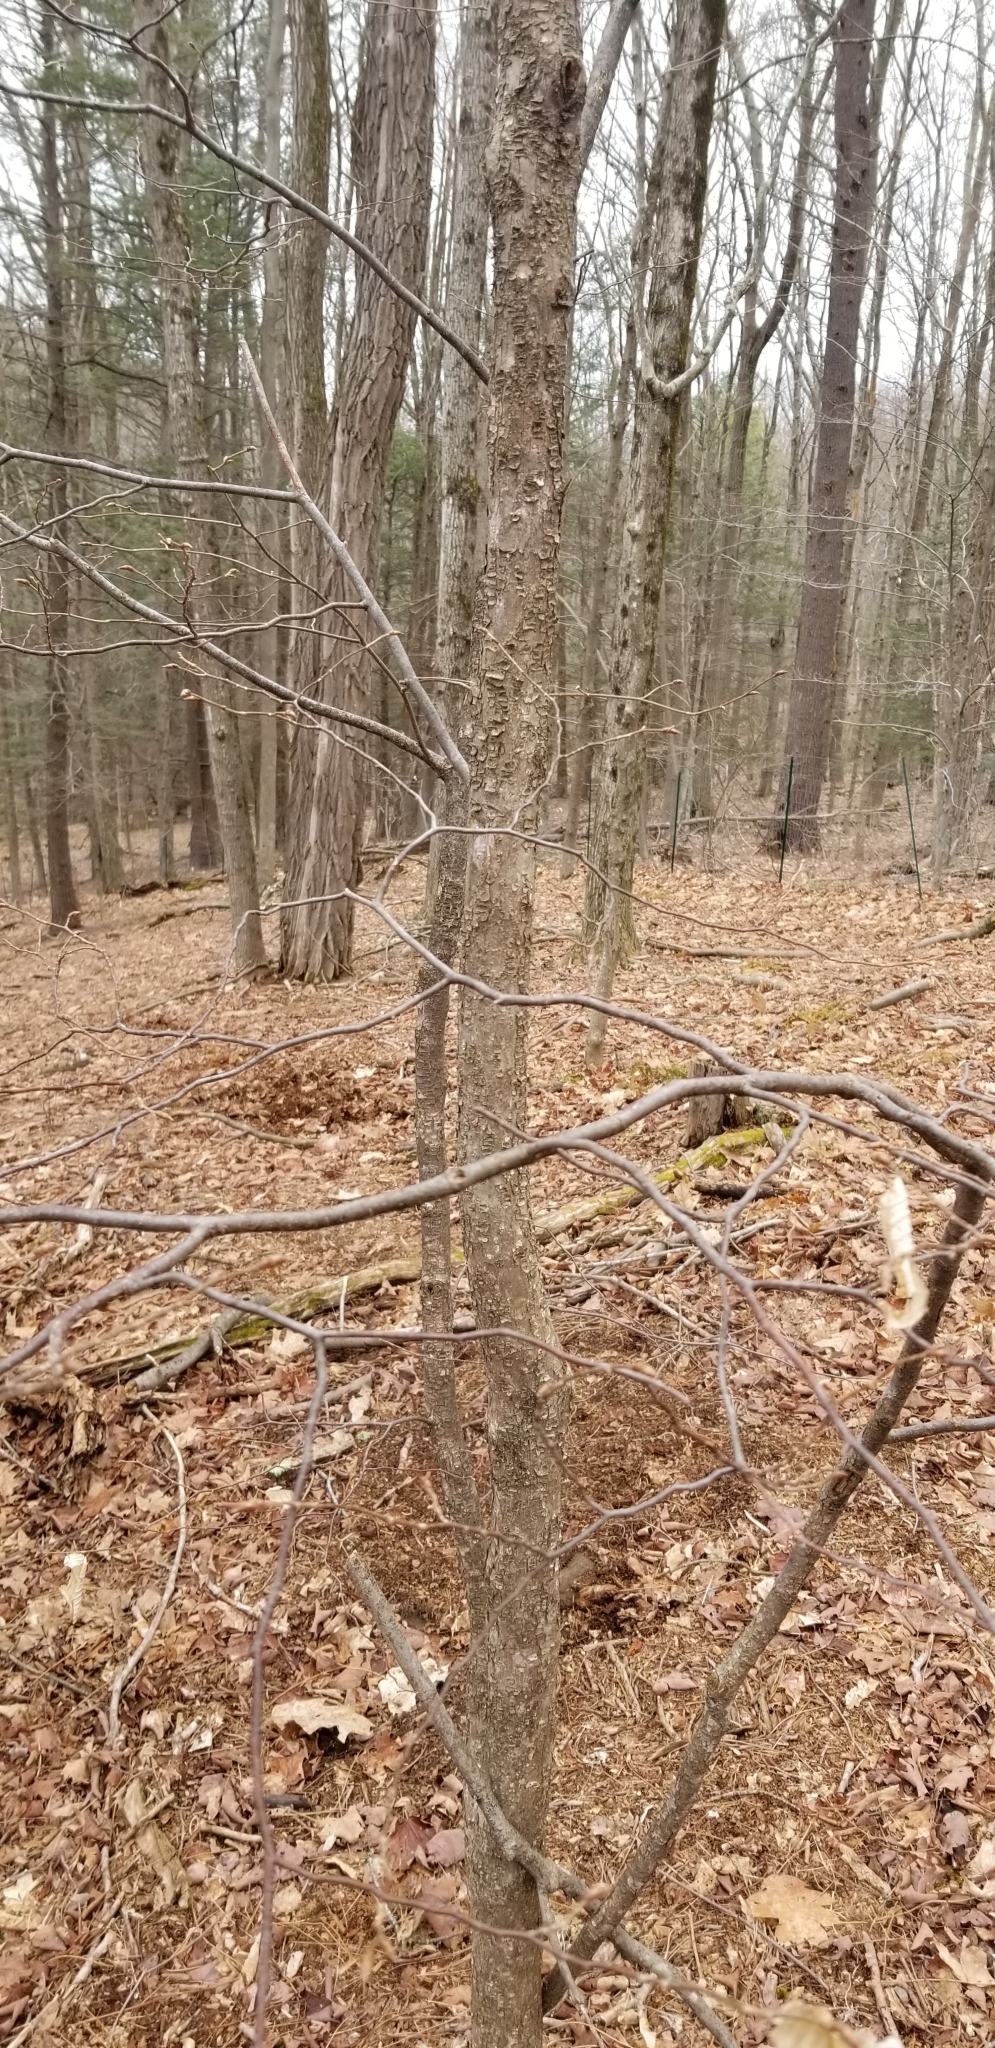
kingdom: Plantae
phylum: Tracheophyta
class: Magnoliopsida
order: Fagales
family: Betulaceae
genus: Ostrya
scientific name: Ostrya virginiana
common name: Ironwood
